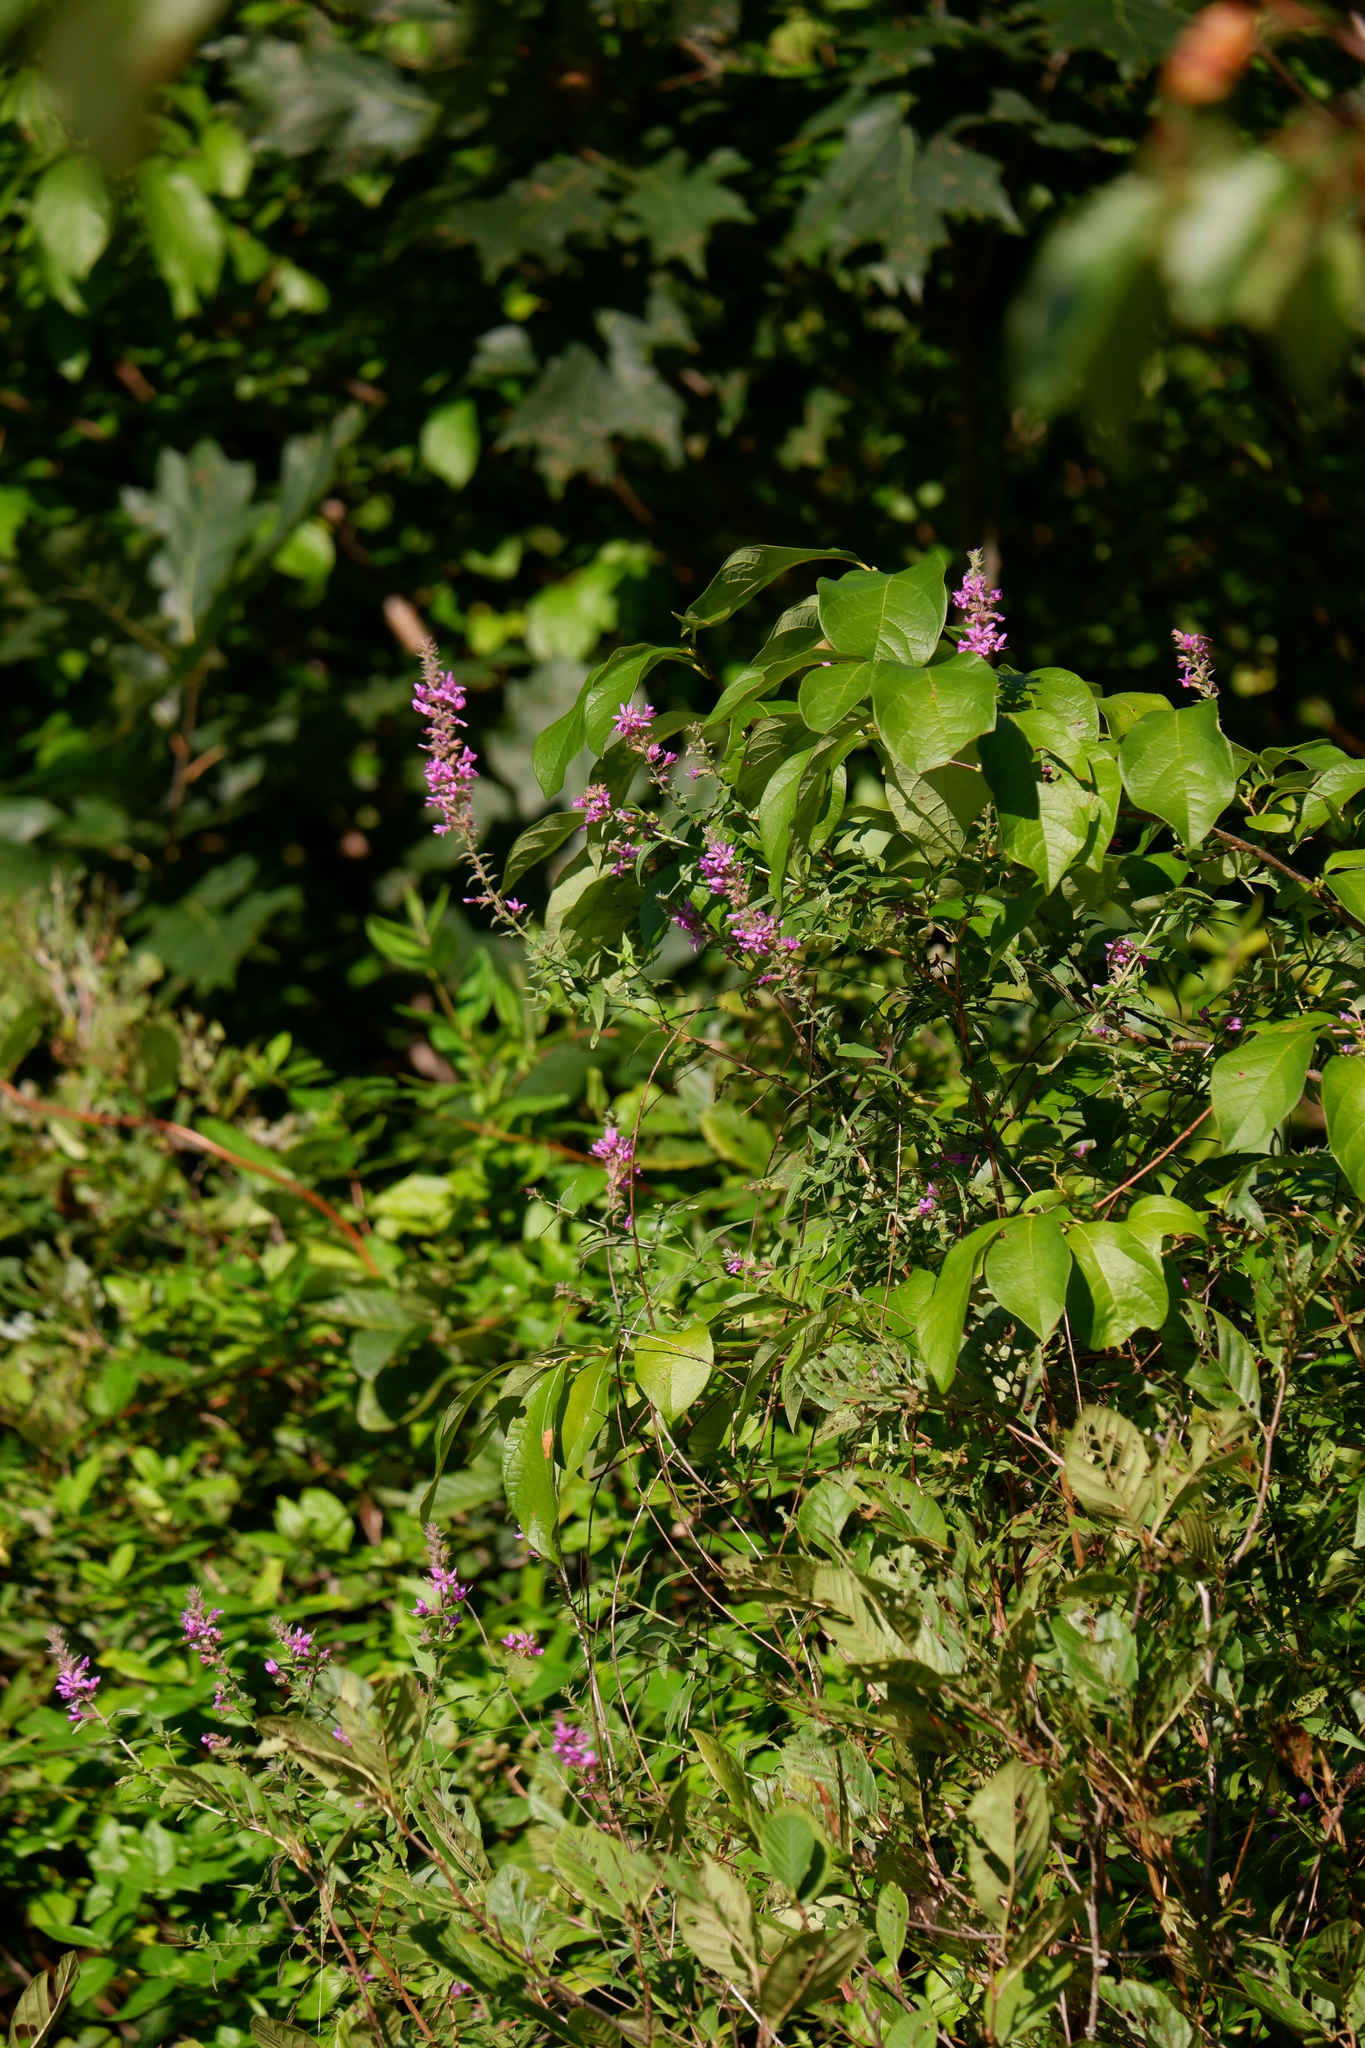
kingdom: Plantae
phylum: Tracheophyta
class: Magnoliopsida
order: Myrtales
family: Lythraceae
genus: Lythrum
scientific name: Lythrum salicaria
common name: Purple loosestrife
